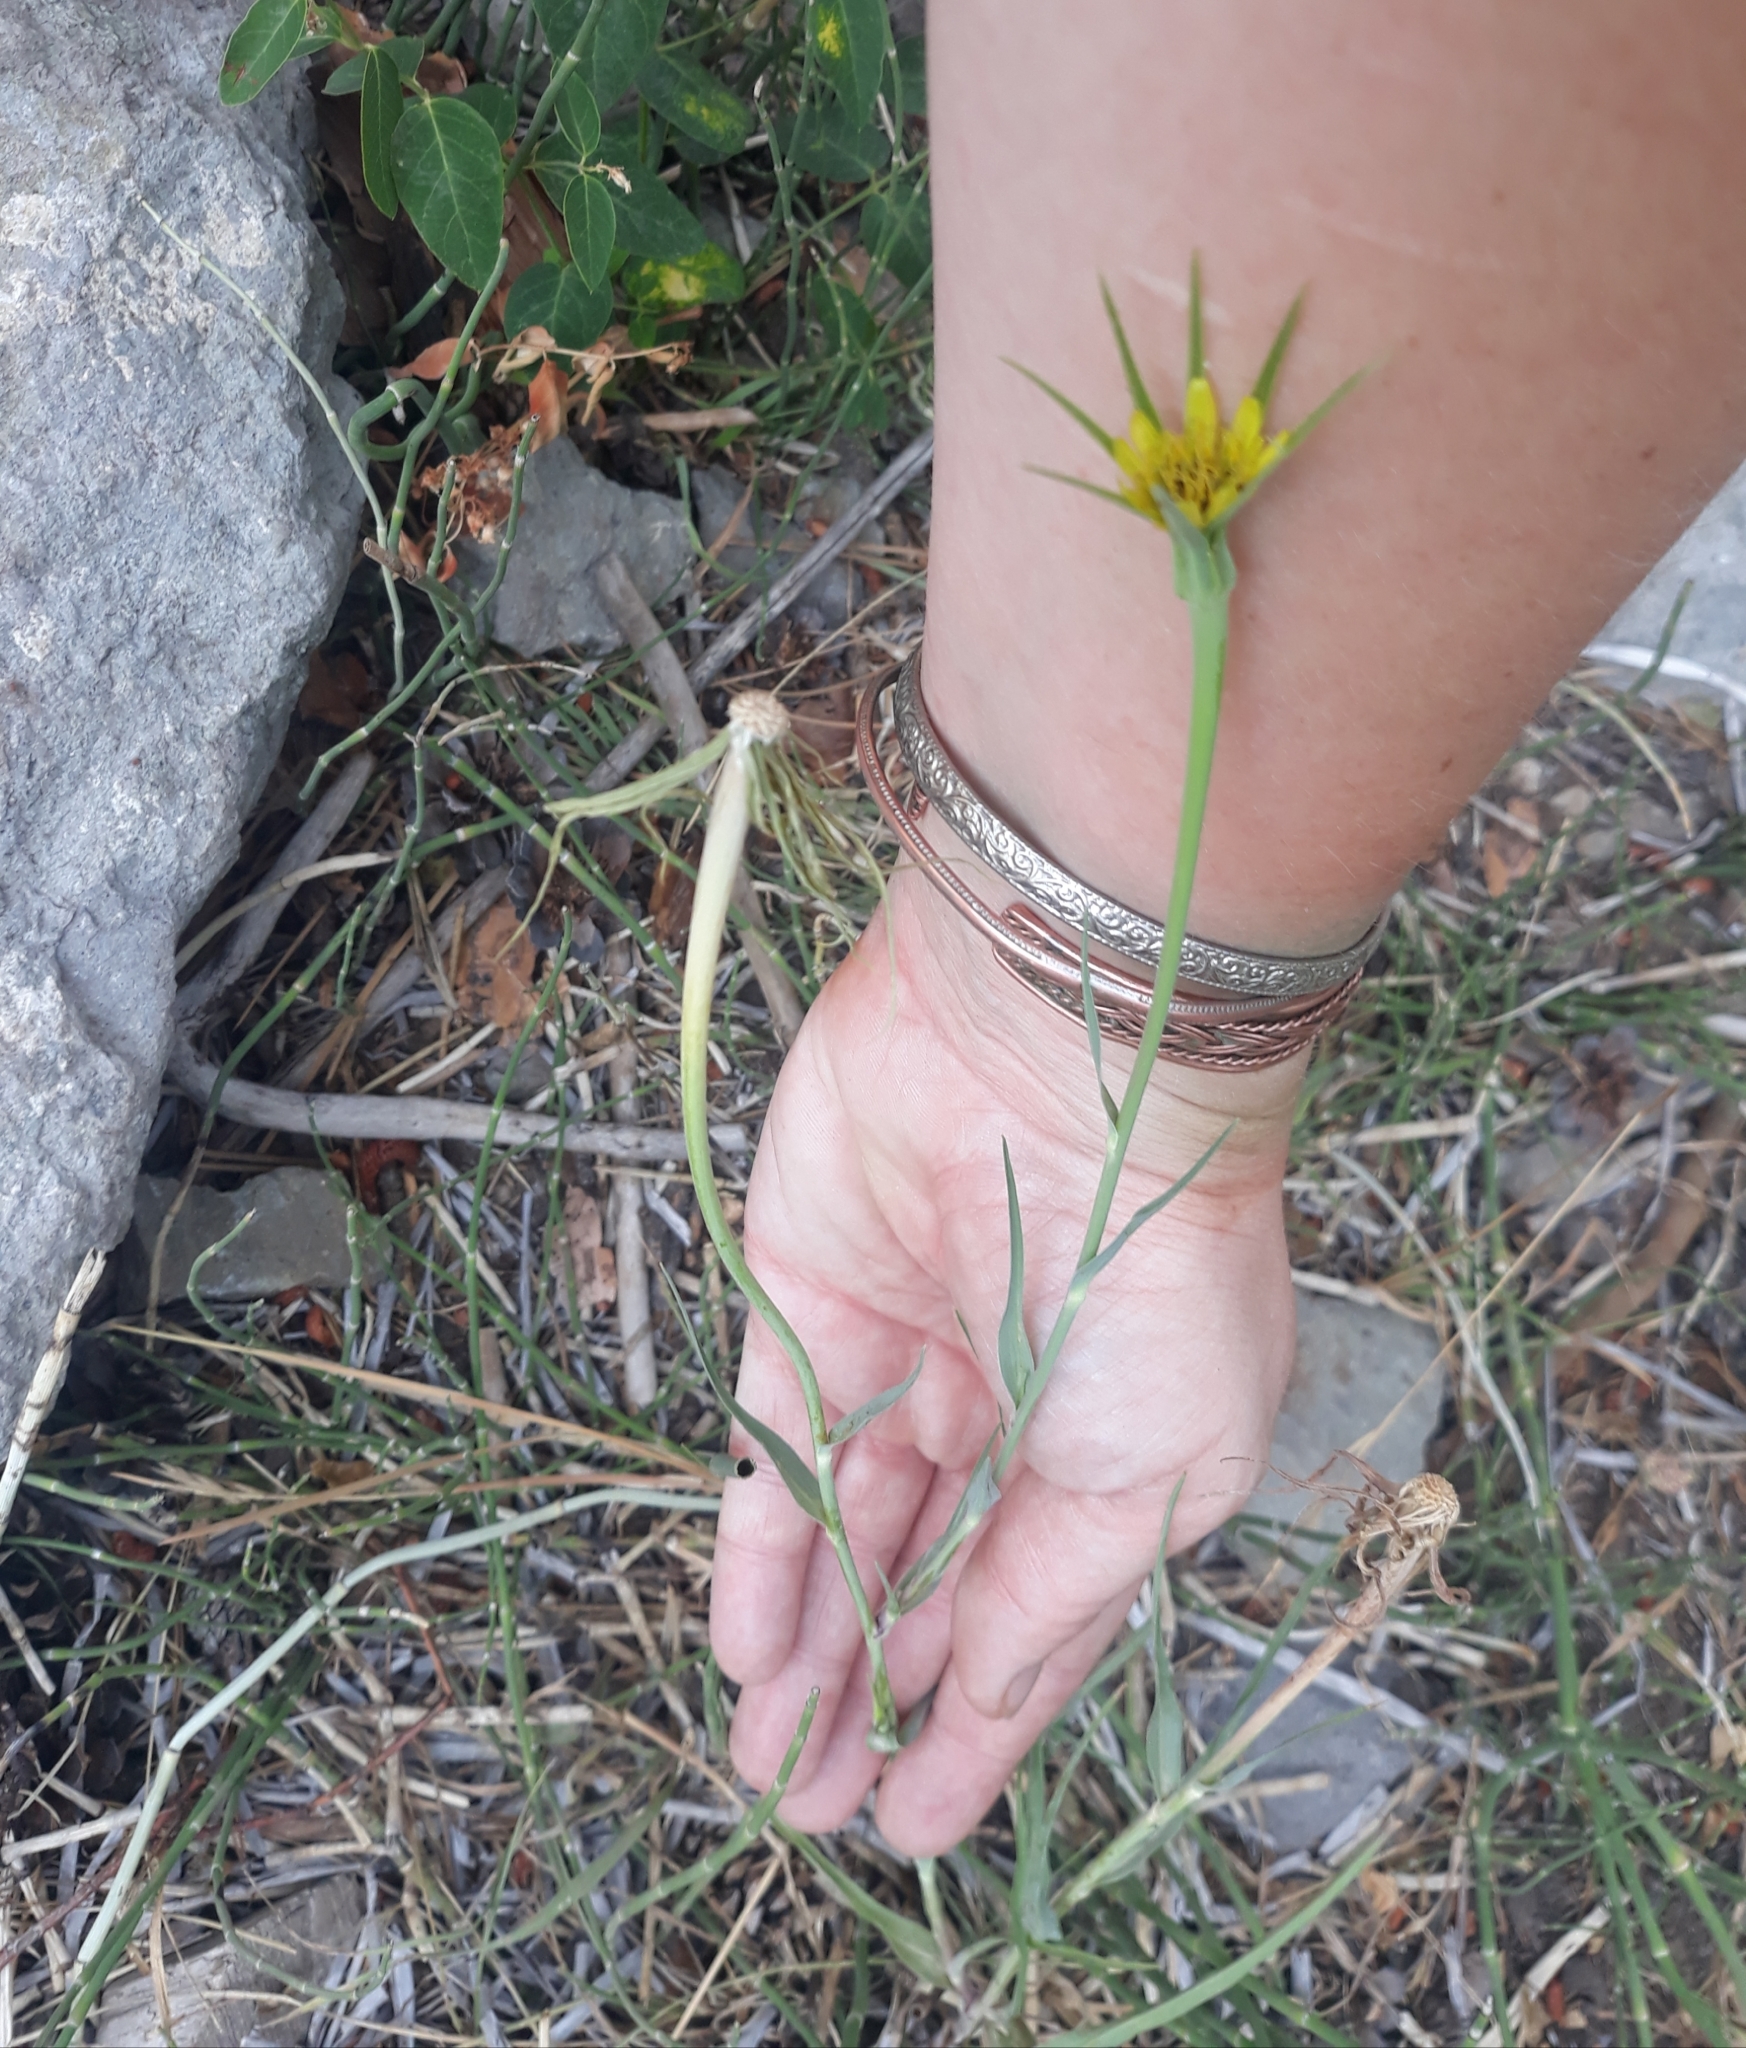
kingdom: Plantae
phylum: Tracheophyta
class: Magnoliopsida
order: Asterales
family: Asteraceae
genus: Tragopogon
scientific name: Tragopogon dubius
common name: Yellow salsify
